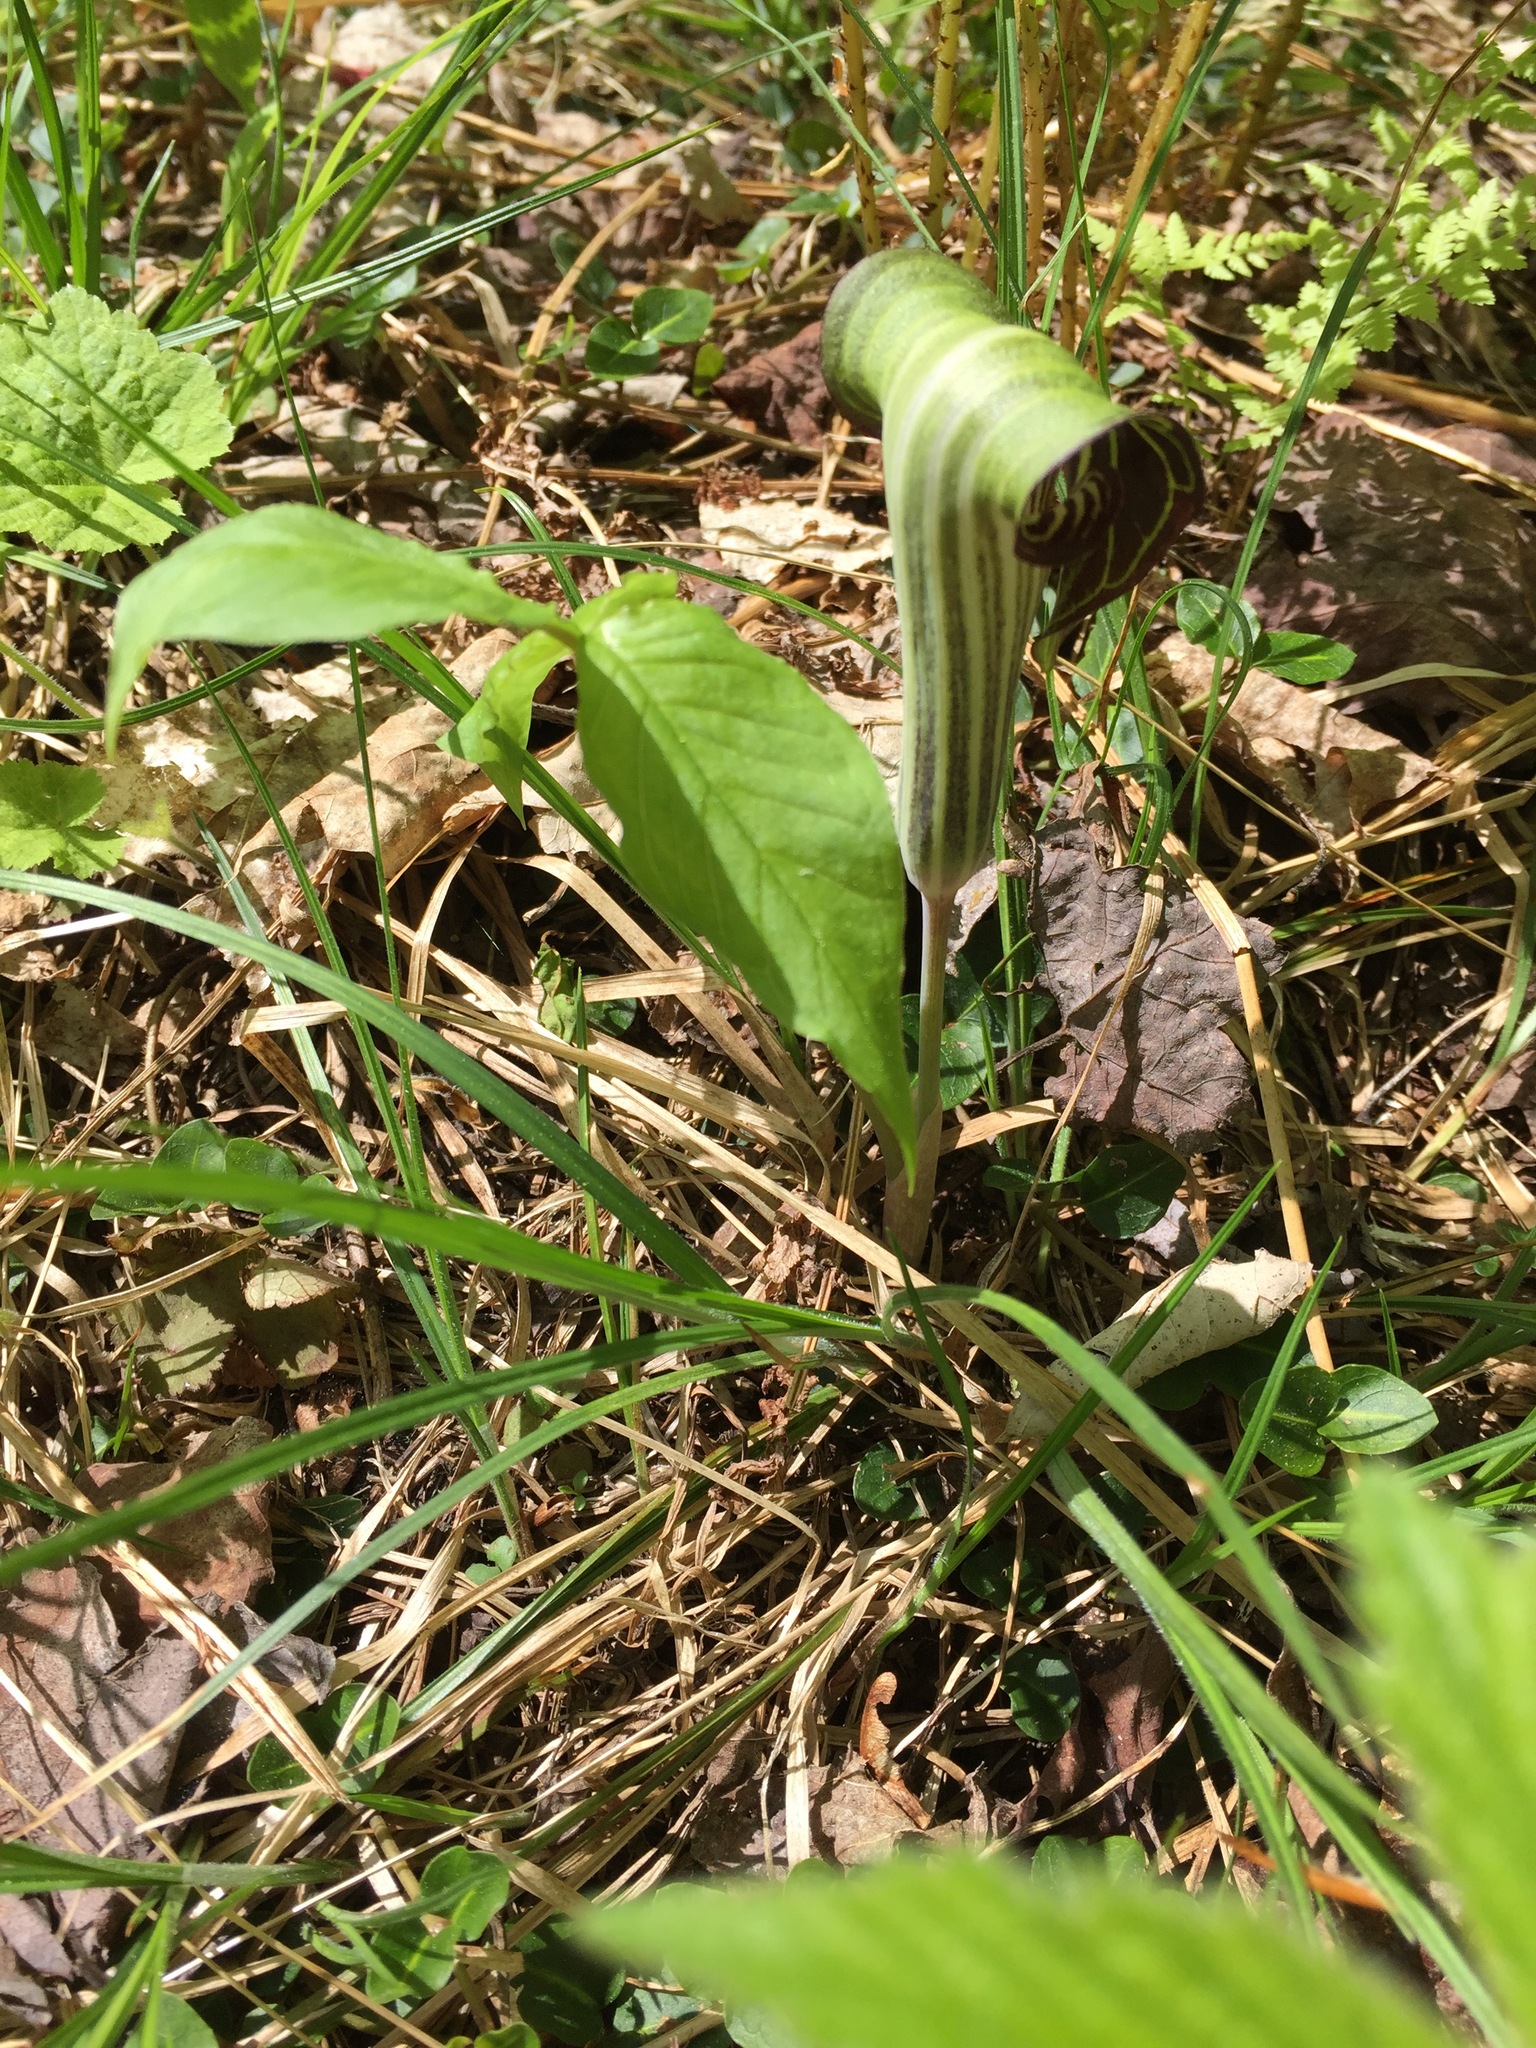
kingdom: Plantae
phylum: Tracheophyta
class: Liliopsida
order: Alismatales
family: Araceae
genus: Arisaema
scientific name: Arisaema triphyllum
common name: Jack-in-the-pulpit
